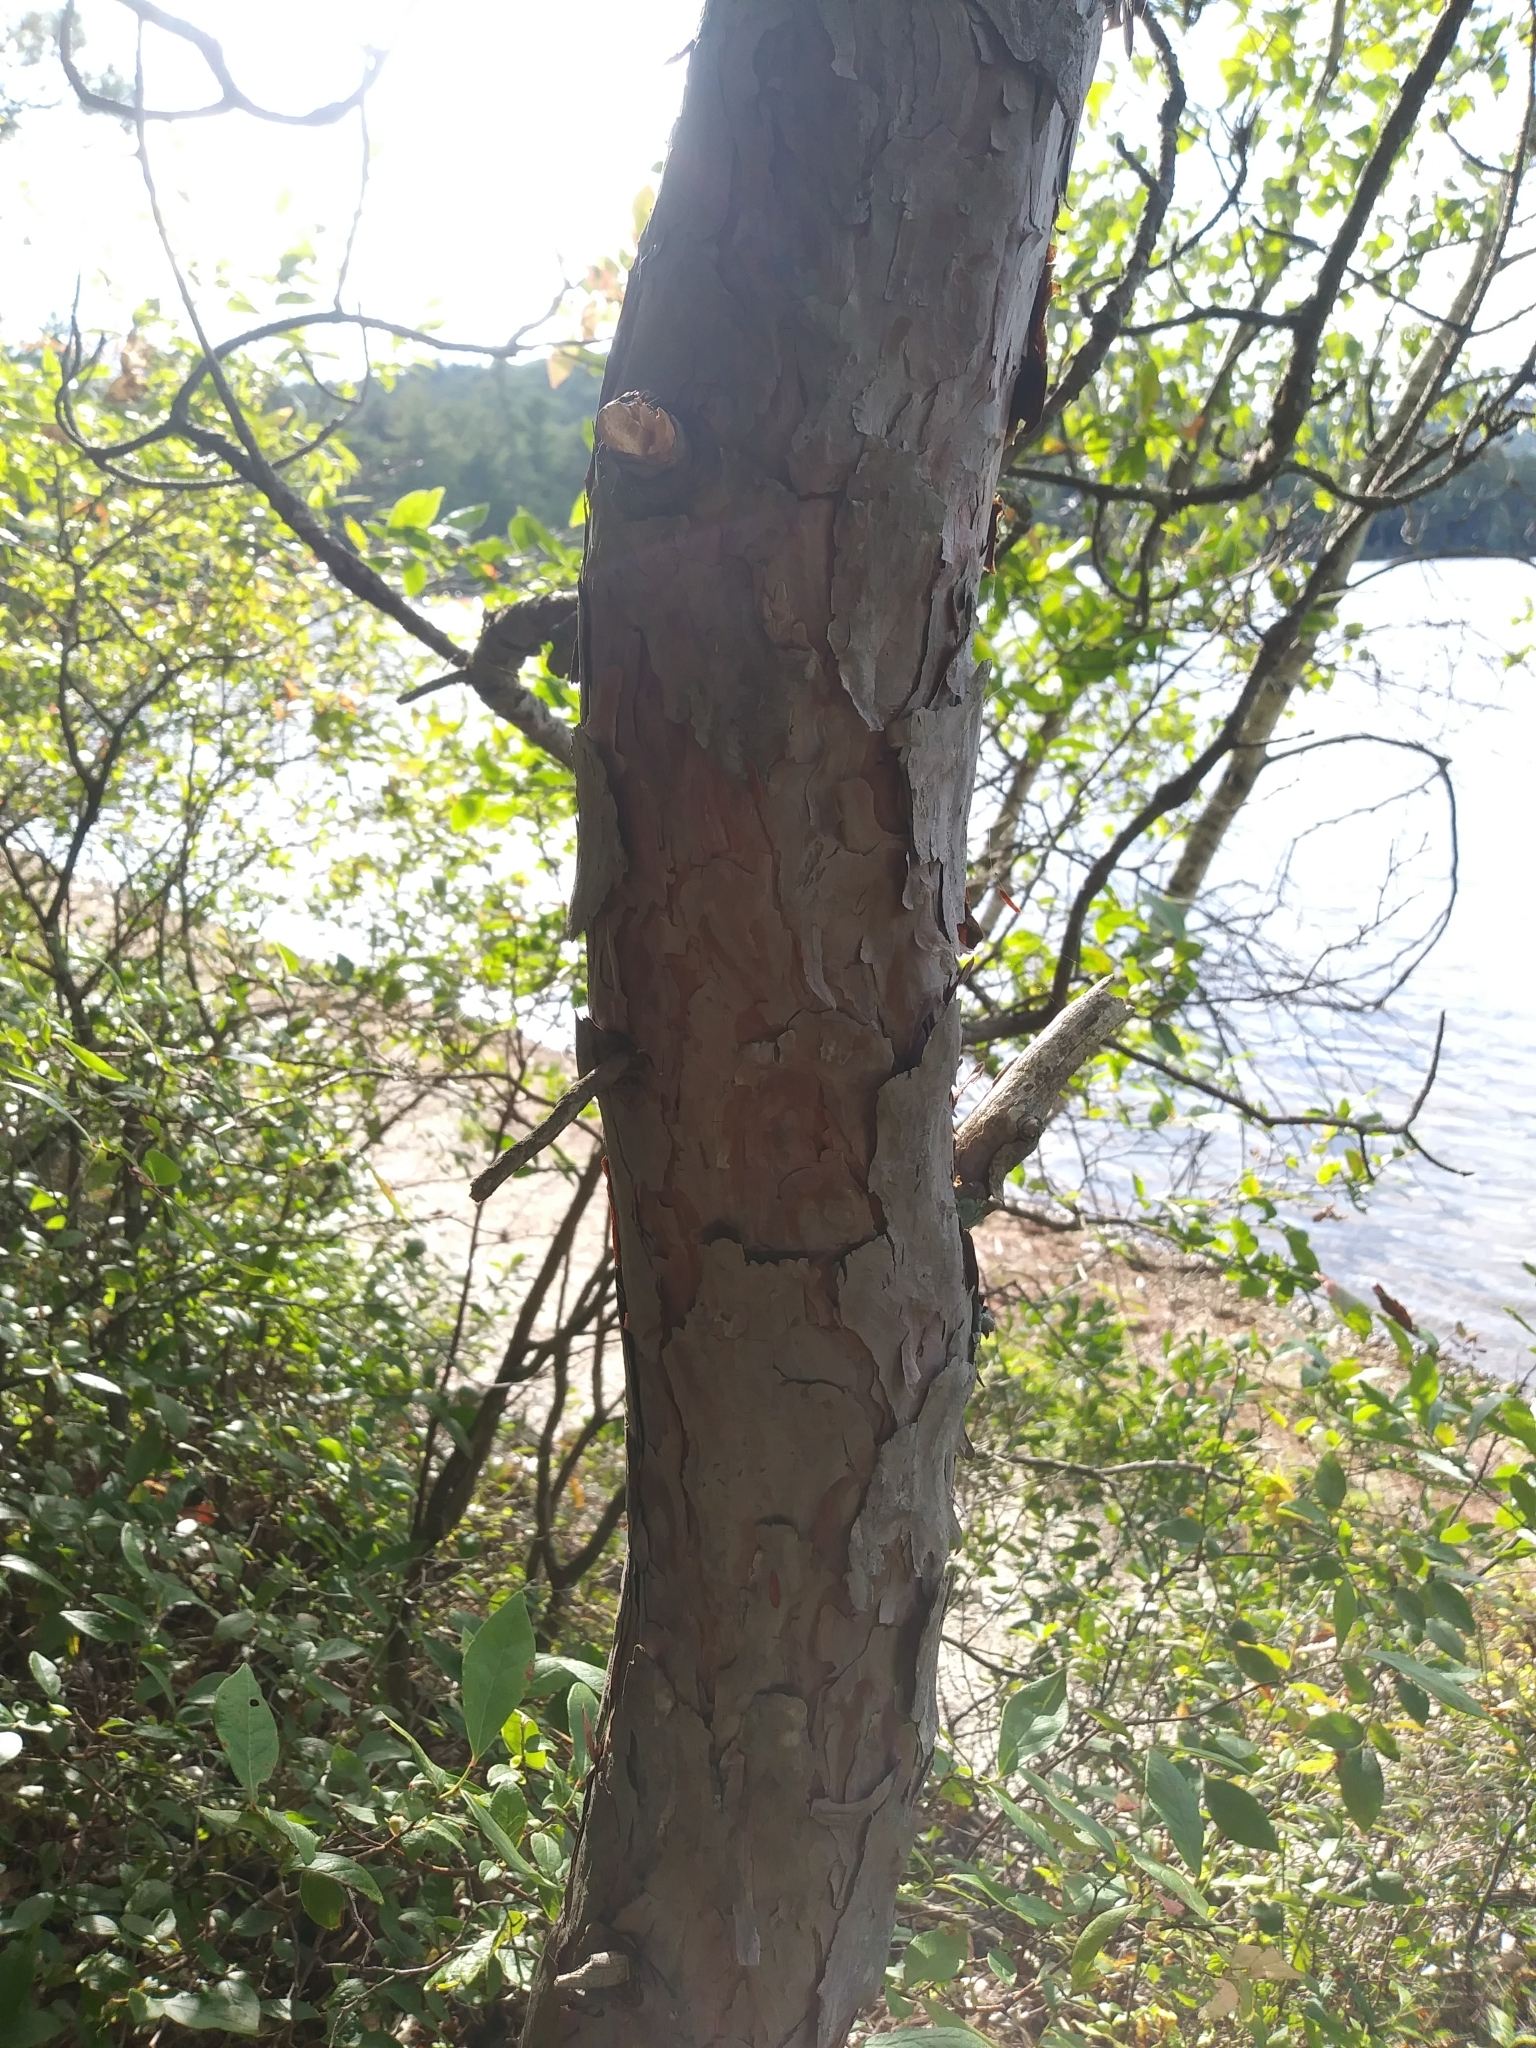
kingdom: Plantae
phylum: Tracheophyta
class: Pinopsida
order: Pinales
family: Pinaceae
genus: Pinus
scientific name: Pinus resinosa
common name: Norway pine
